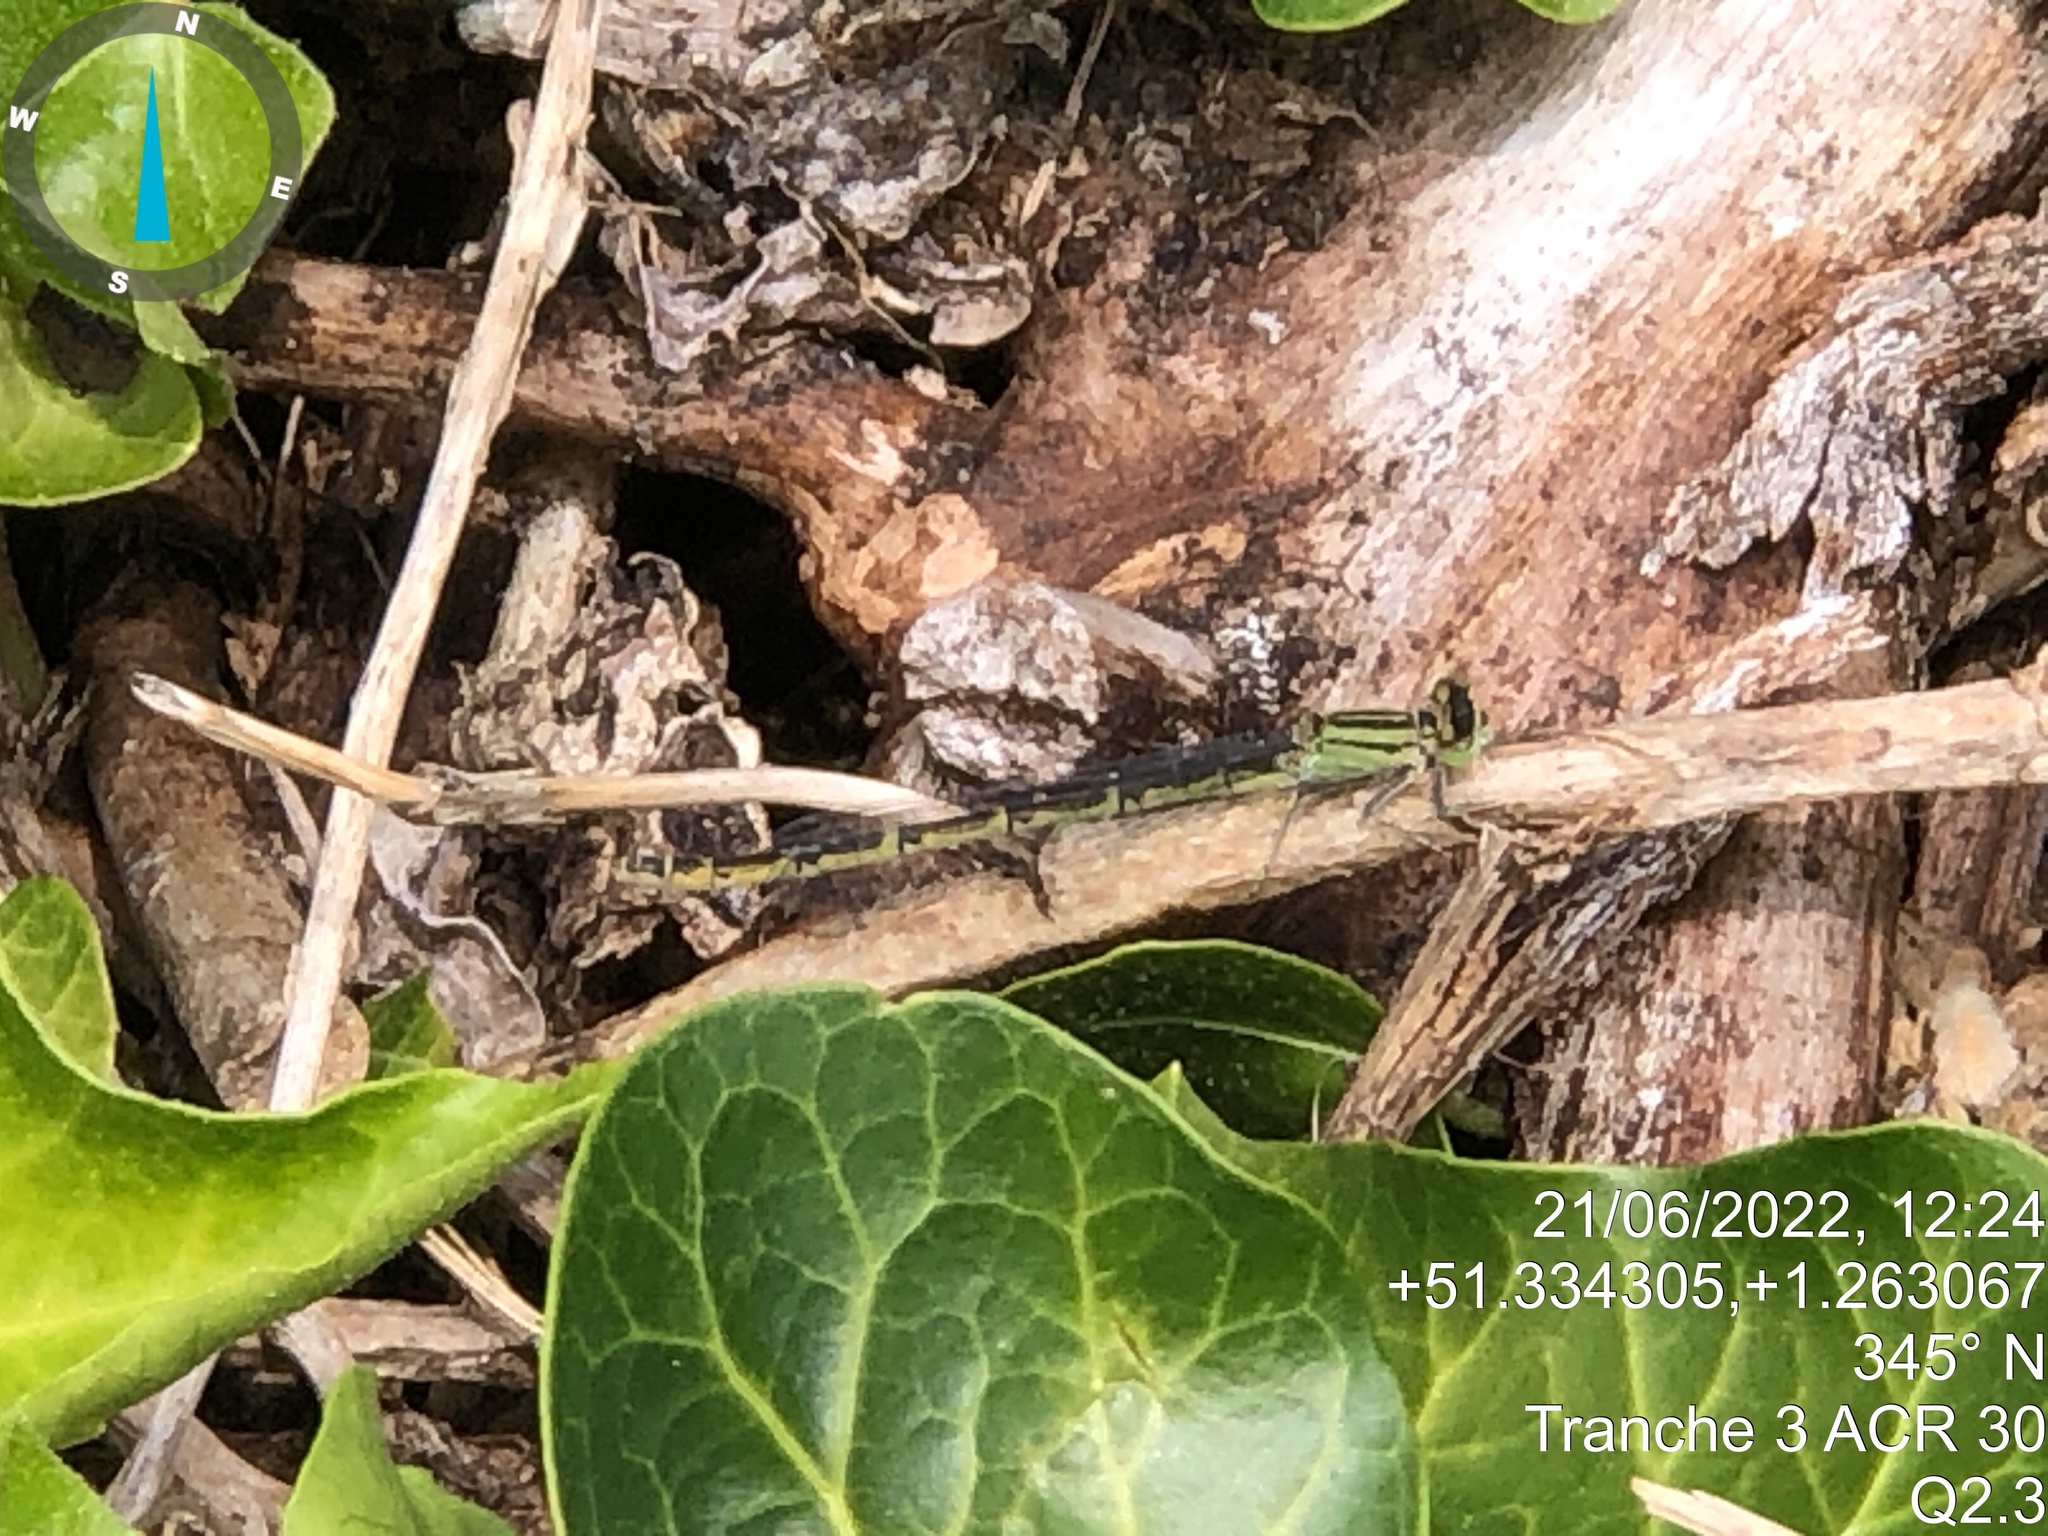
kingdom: Animalia
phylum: Arthropoda
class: Insecta
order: Odonata
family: Coenagrionidae
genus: Enallagma
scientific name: Enallagma cyathigerum
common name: Common blue damselfly
